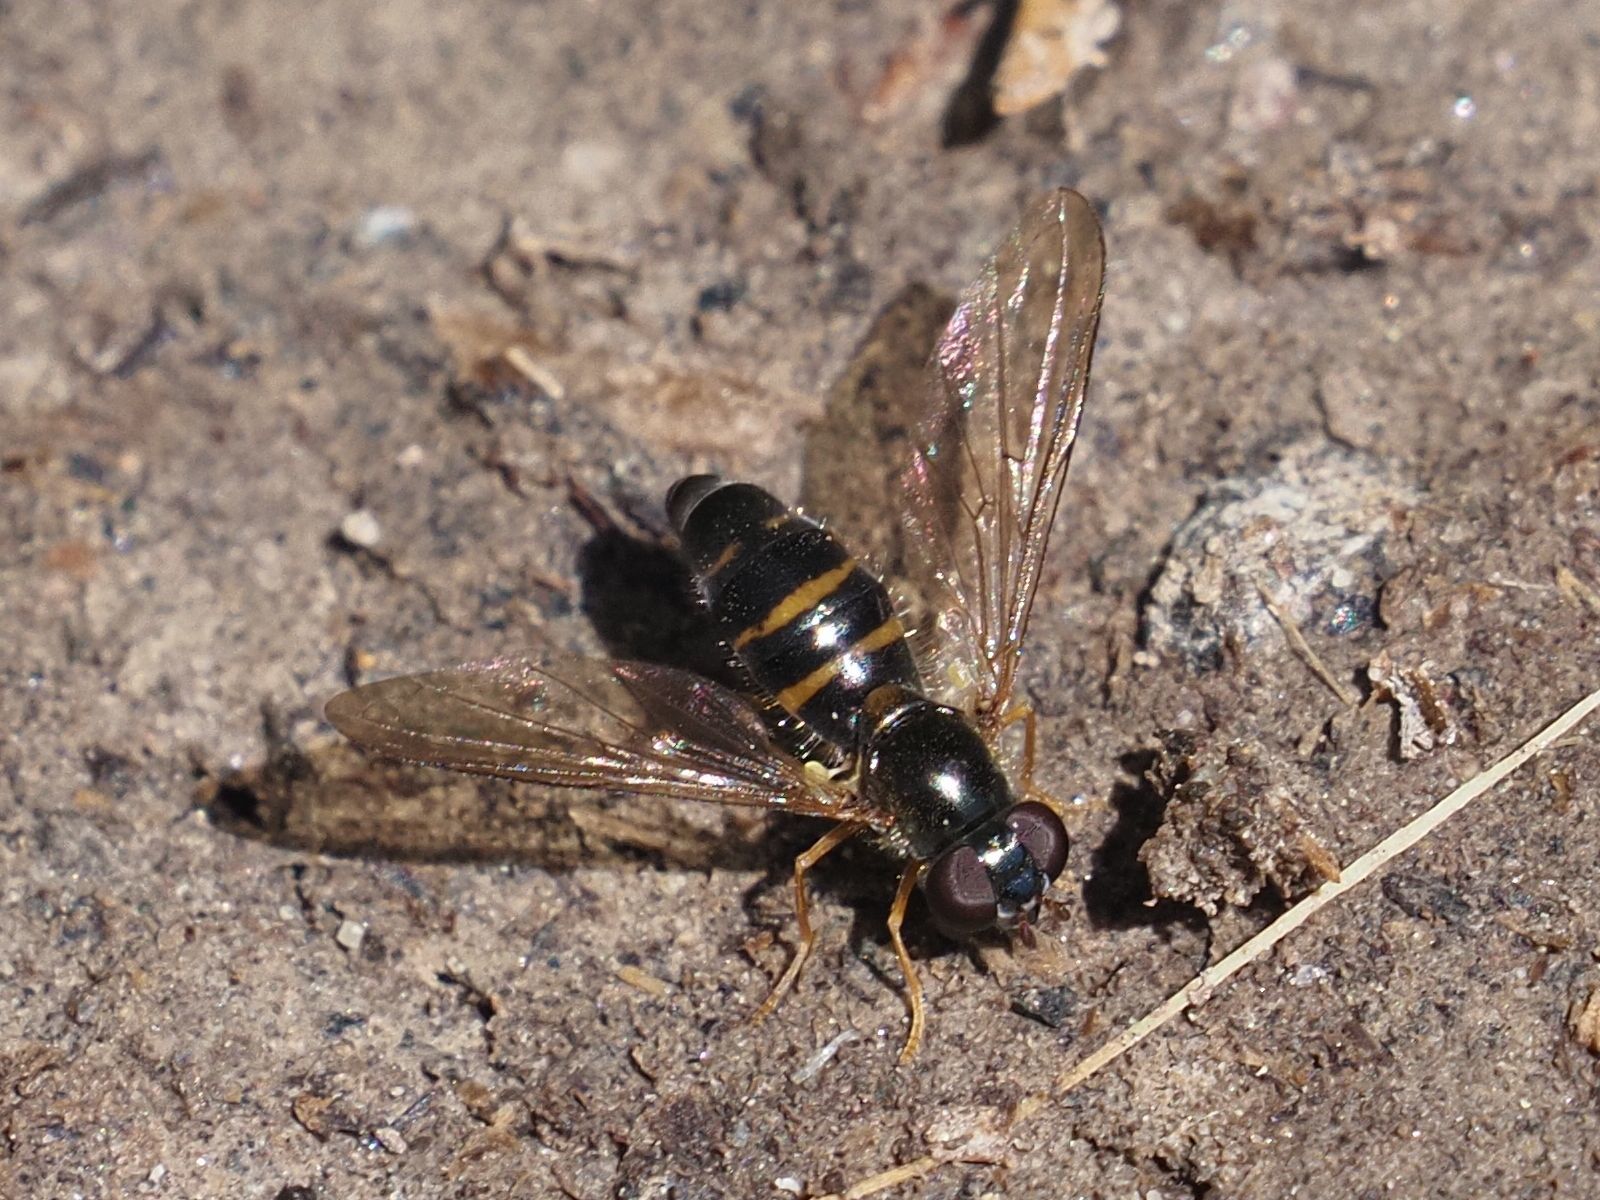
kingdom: Animalia
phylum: Arthropoda
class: Insecta
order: Diptera
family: Syrphidae
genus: Meligramma
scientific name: Meligramma cingulata
